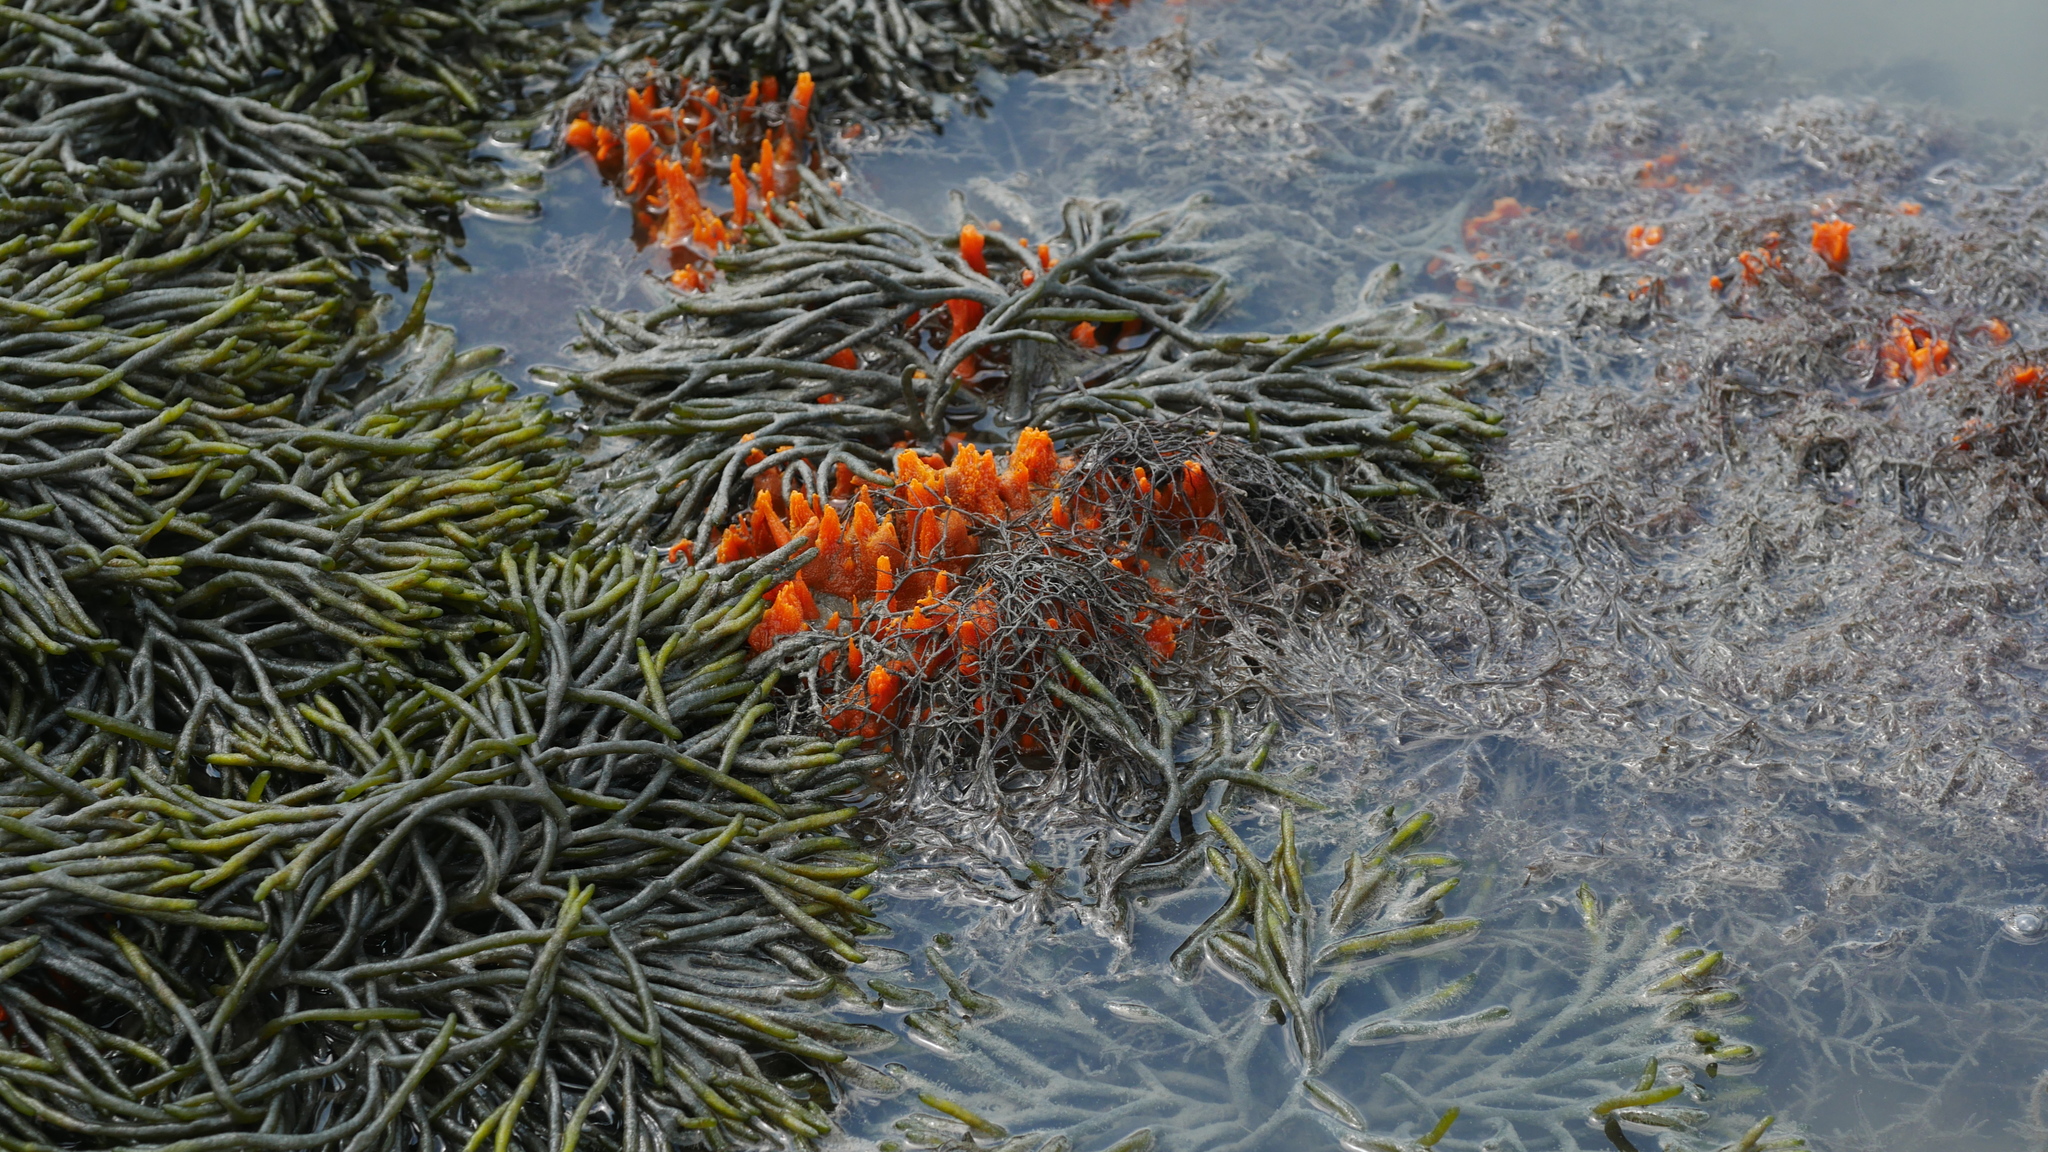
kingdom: Plantae
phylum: Chlorophyta
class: Ulvophyceae
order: Bryopsidales
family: Codiaceae
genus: Codium
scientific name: Codium fragile
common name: Dead man's fingers
